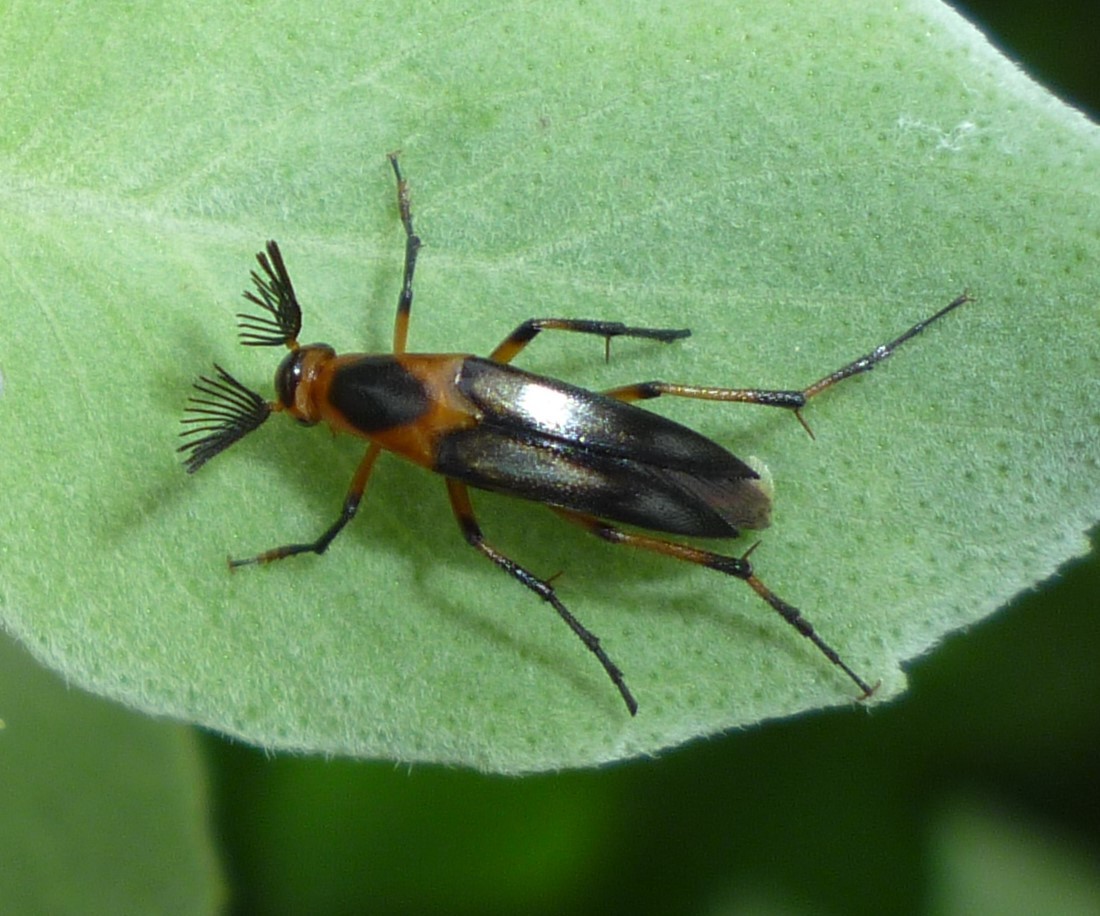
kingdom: Animalia
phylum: Arthropoda
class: Insecta
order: Coleoptera
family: Ripiphoridae
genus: Macrosiagon
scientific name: Macrosiagon limbatum
